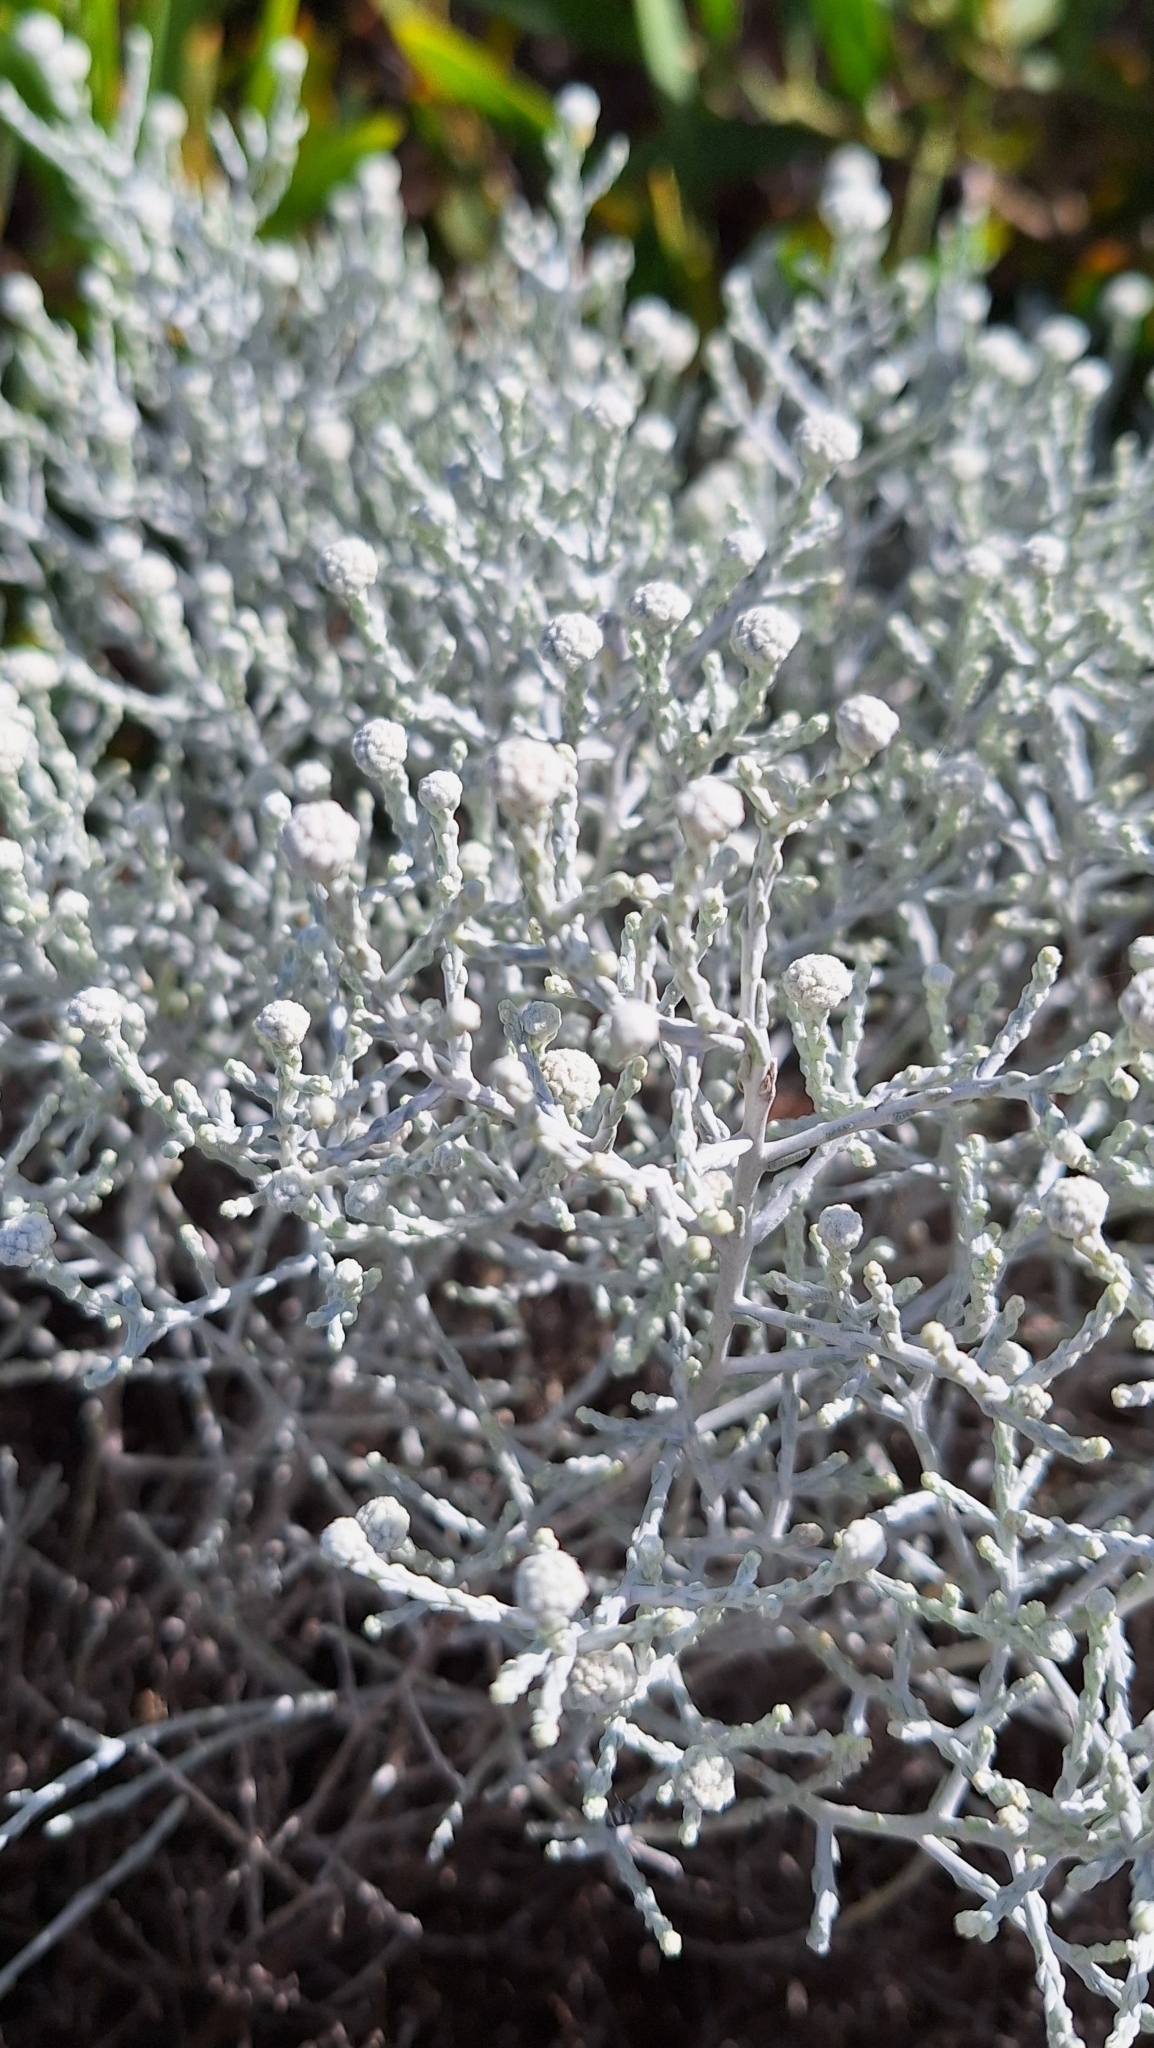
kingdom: Plantae
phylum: Tracheophyta
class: Magnoliopsida
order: Asterales
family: Asteraceae
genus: Calocephalus
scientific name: Calocephalus brownii
